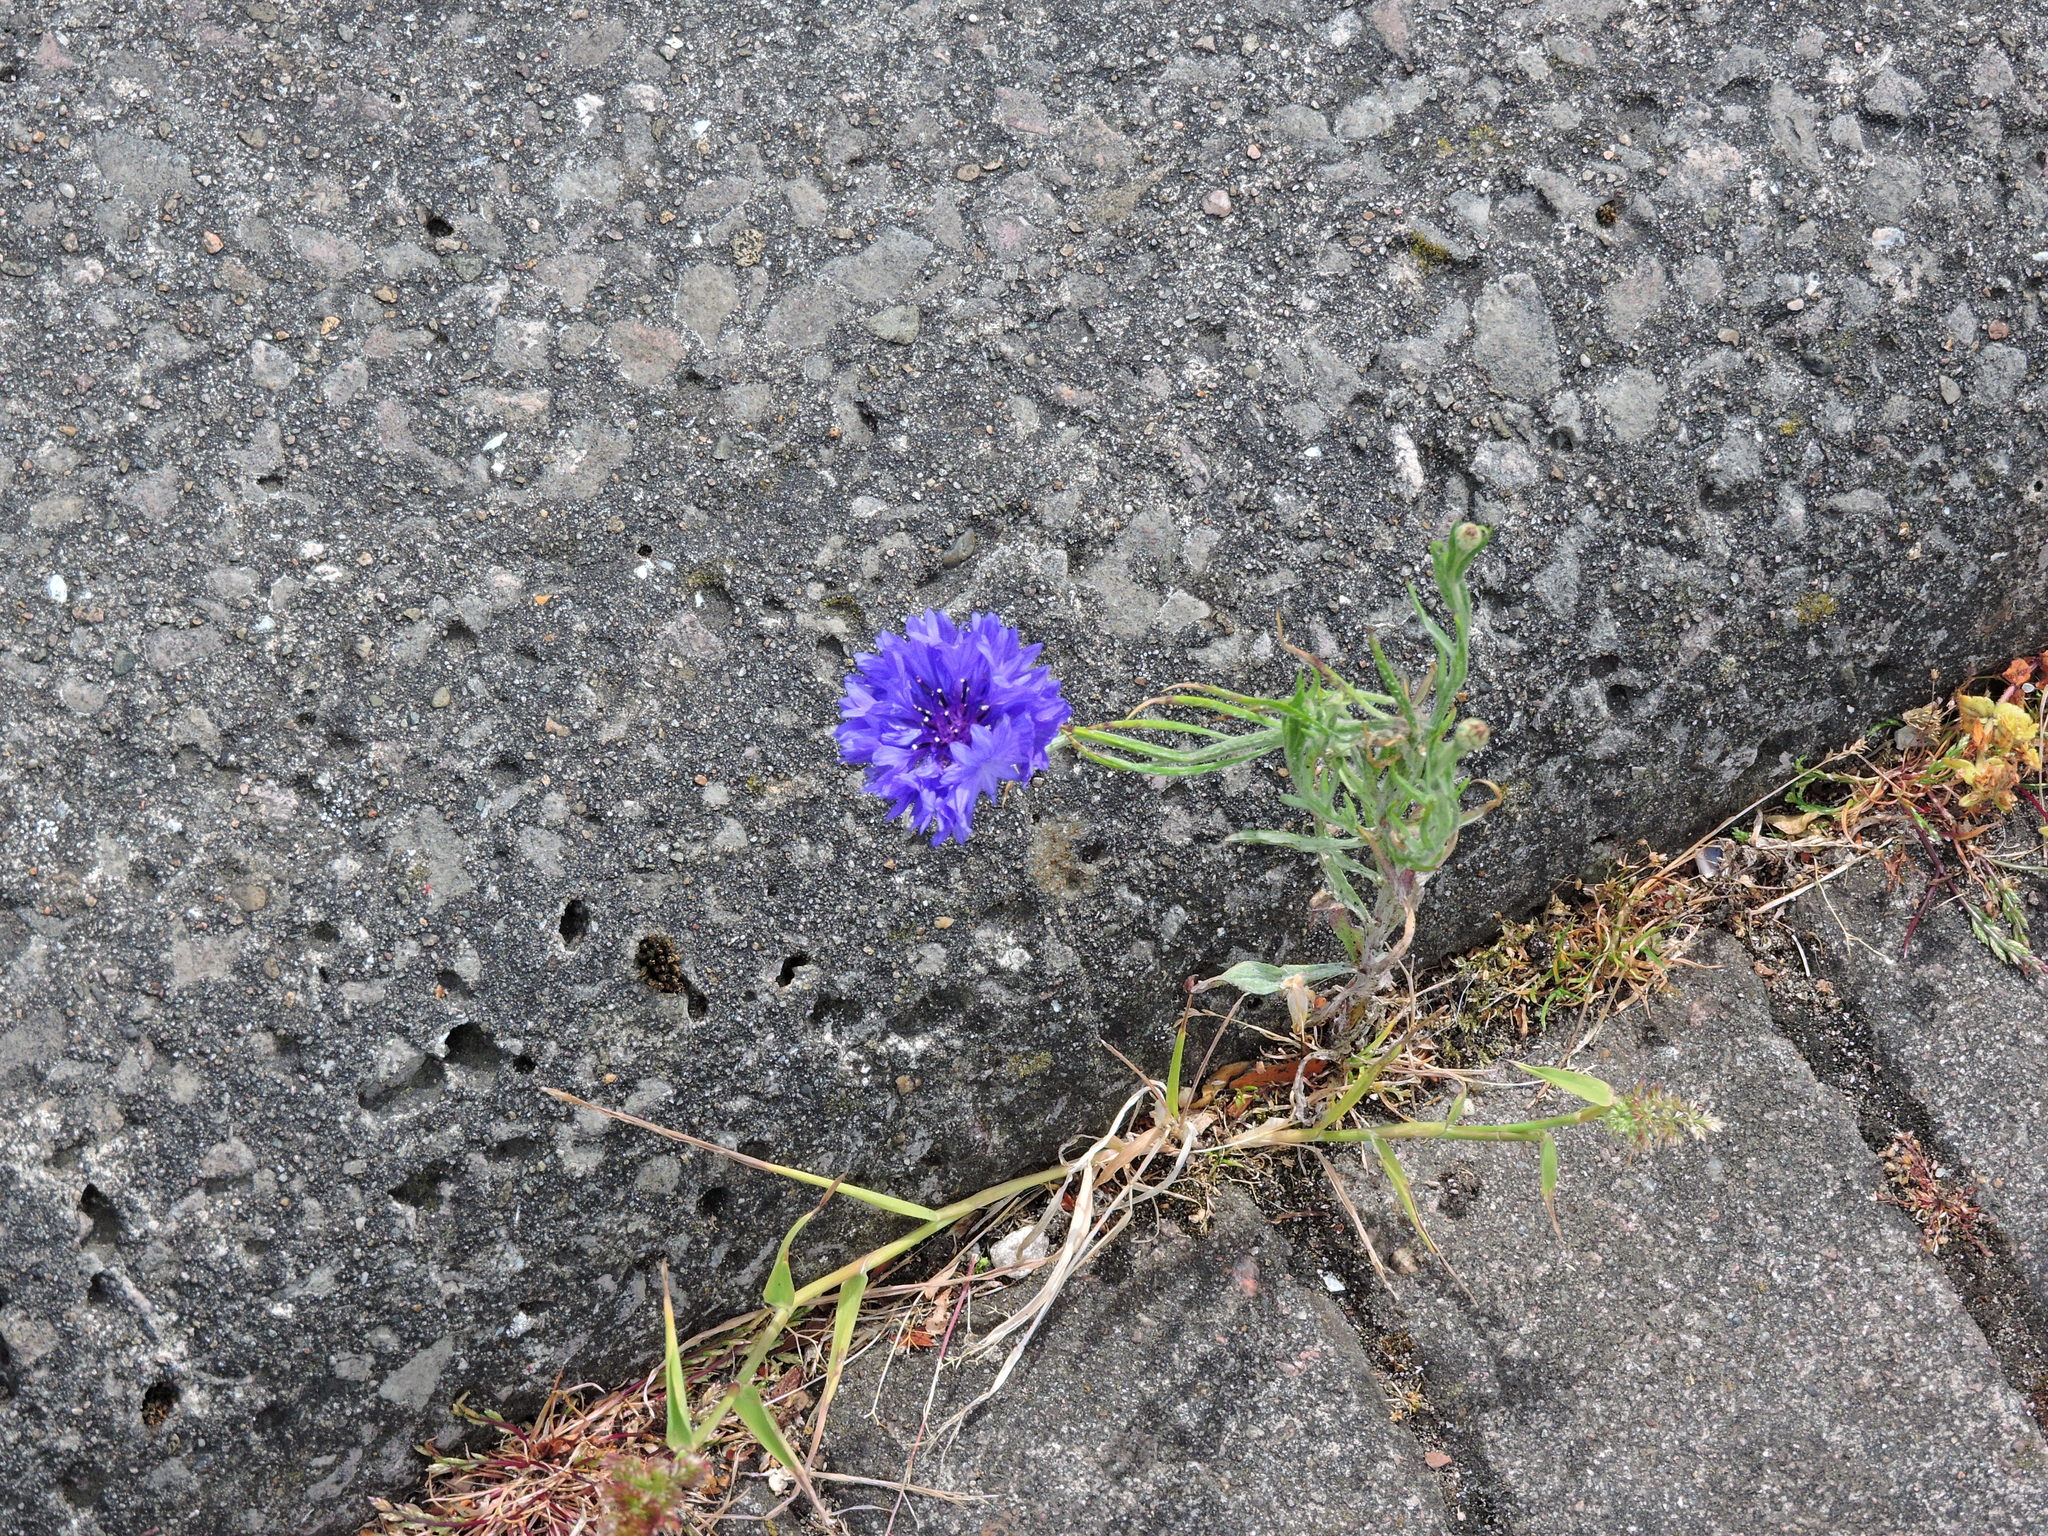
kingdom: Plantae
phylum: Tracheophyta
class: Magnoliopsida
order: Asterales
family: Asteraceae
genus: Centaurea
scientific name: Centaurea cyanus
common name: Cornflower
